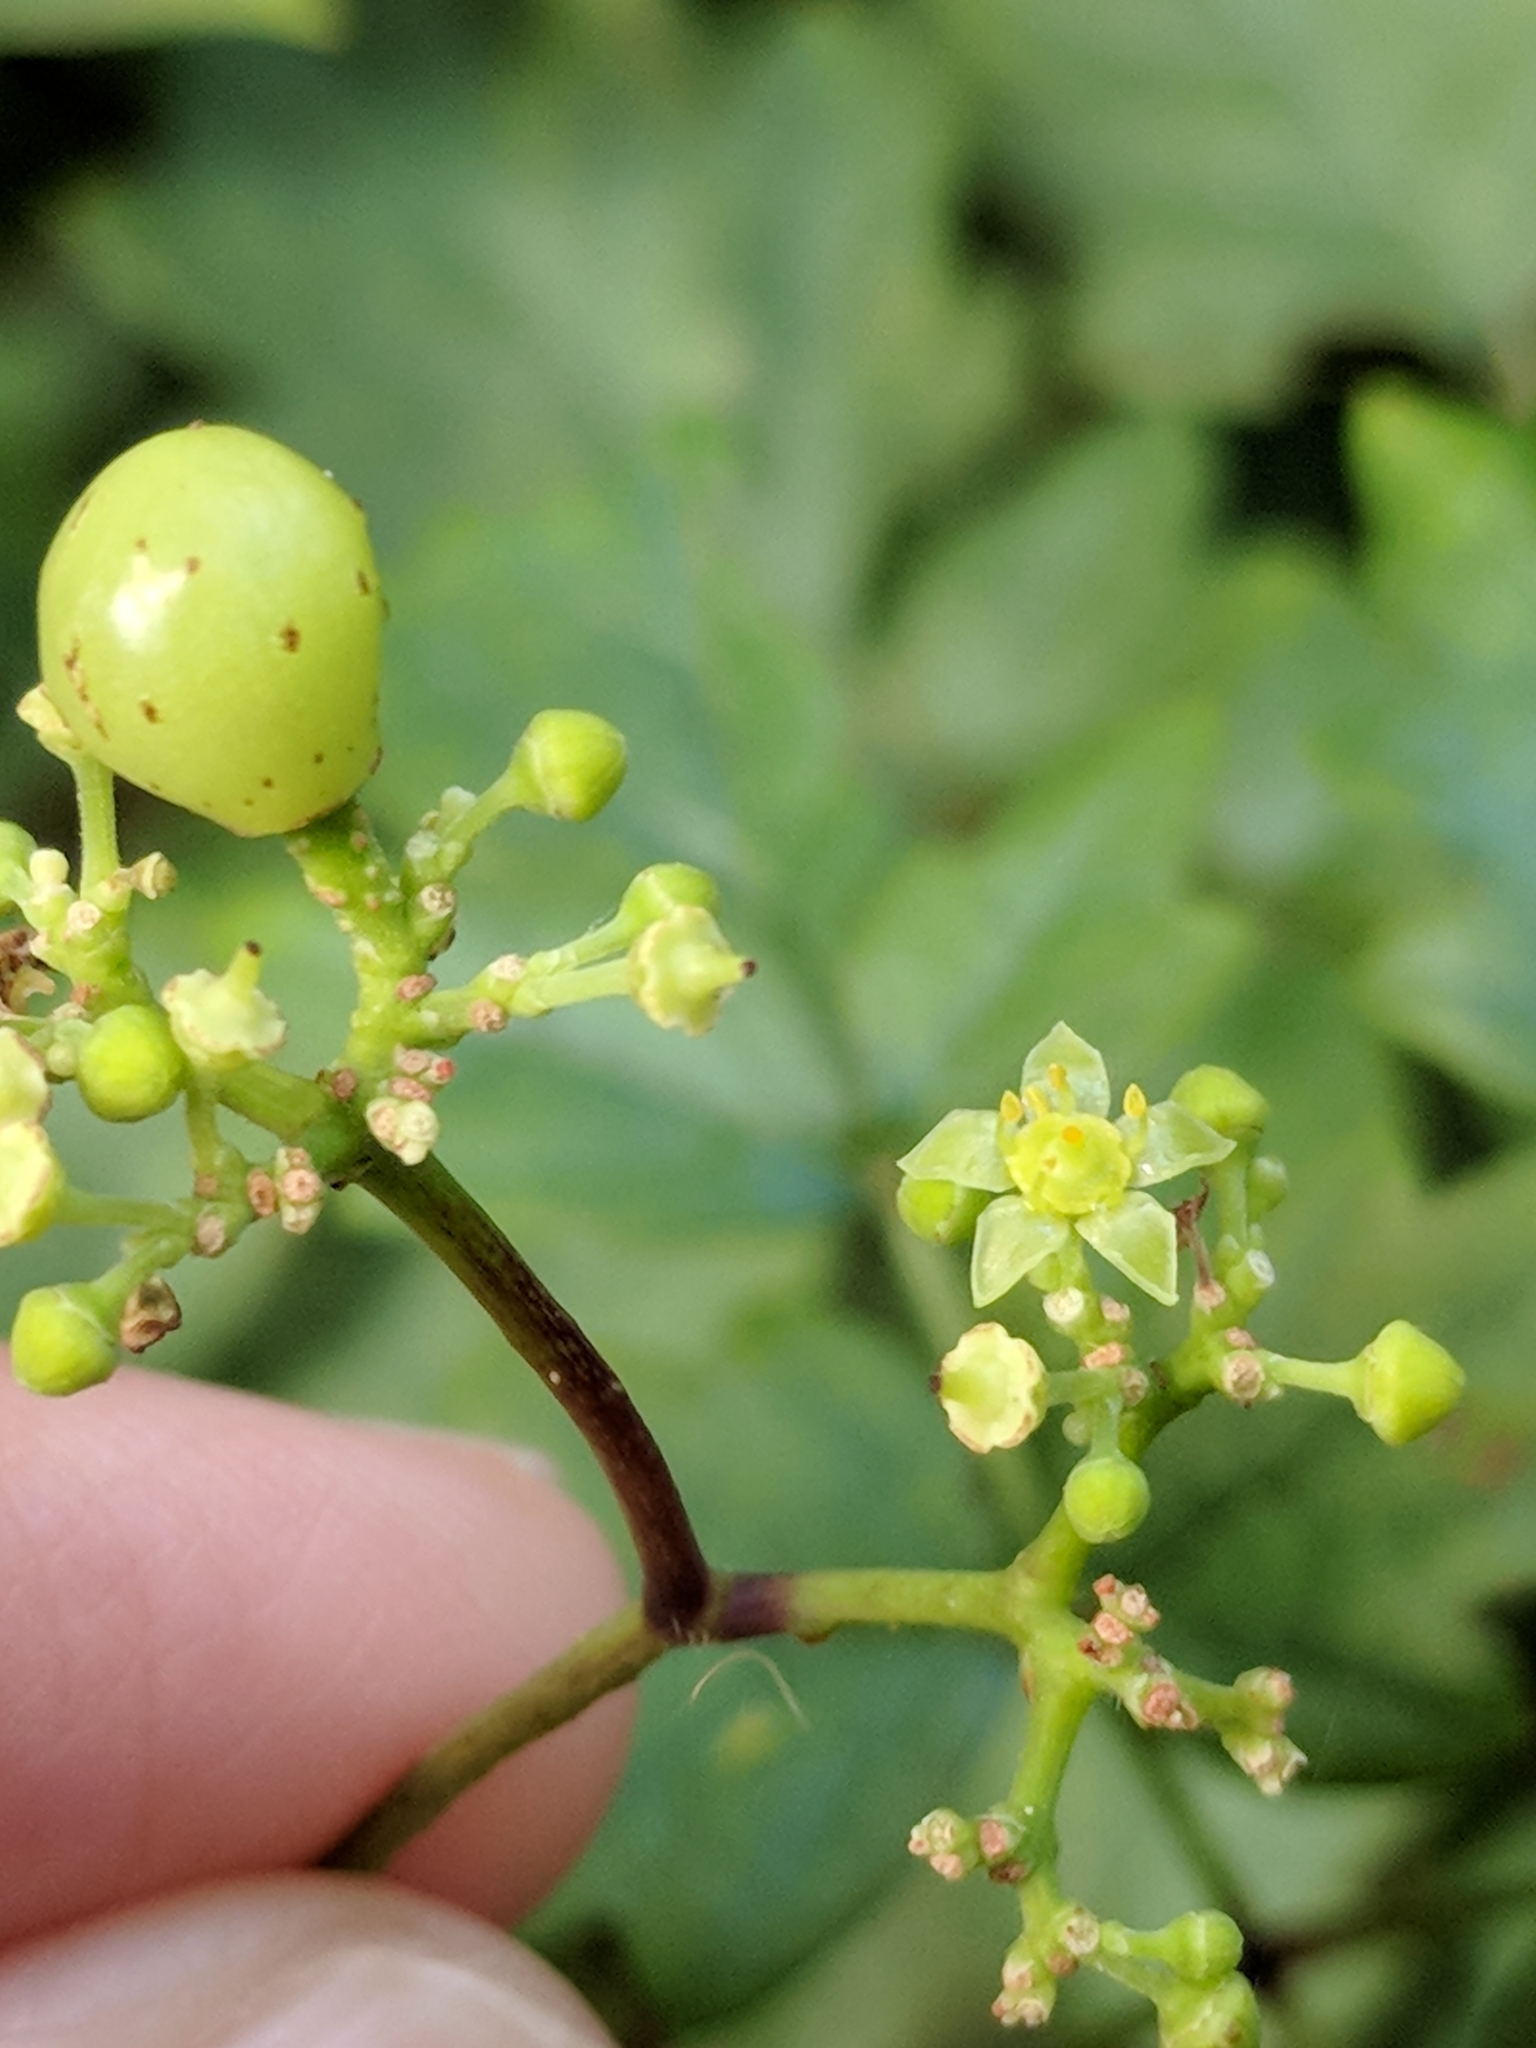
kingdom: Plantae
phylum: Tracheophyta
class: Magnoliopsida
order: Vitales
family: Vitaceae
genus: Nekemias
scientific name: Nekemias arborea
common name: Peppervine
